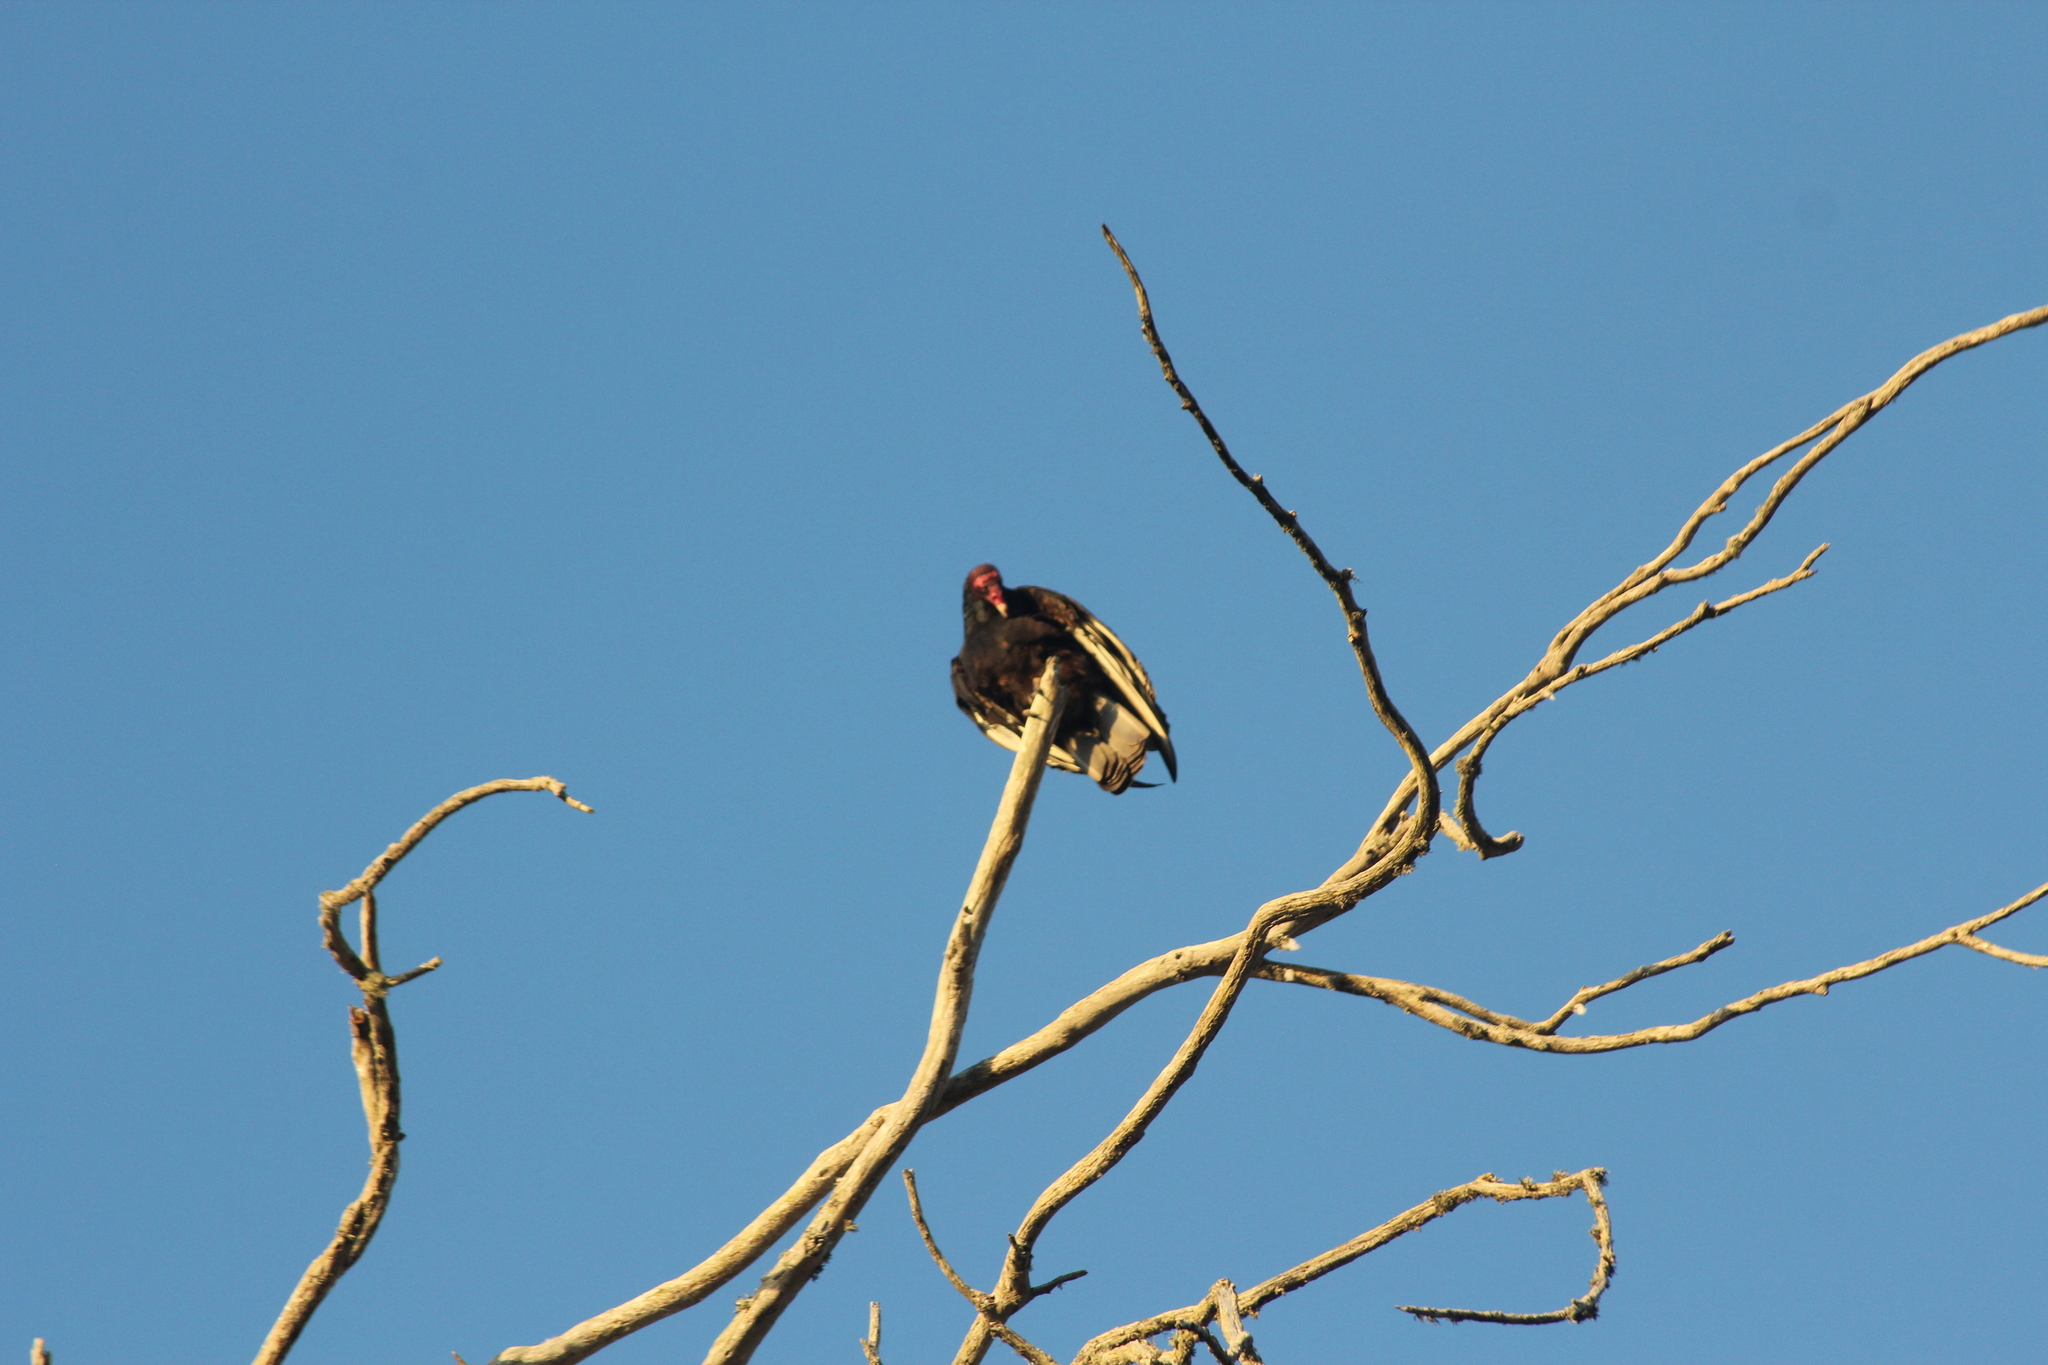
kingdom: Animalia
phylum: Chordata
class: Aves
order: Accipitriformes
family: Cathartidae
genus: Cathartes
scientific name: Cathartes aura
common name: Turkey vulture
